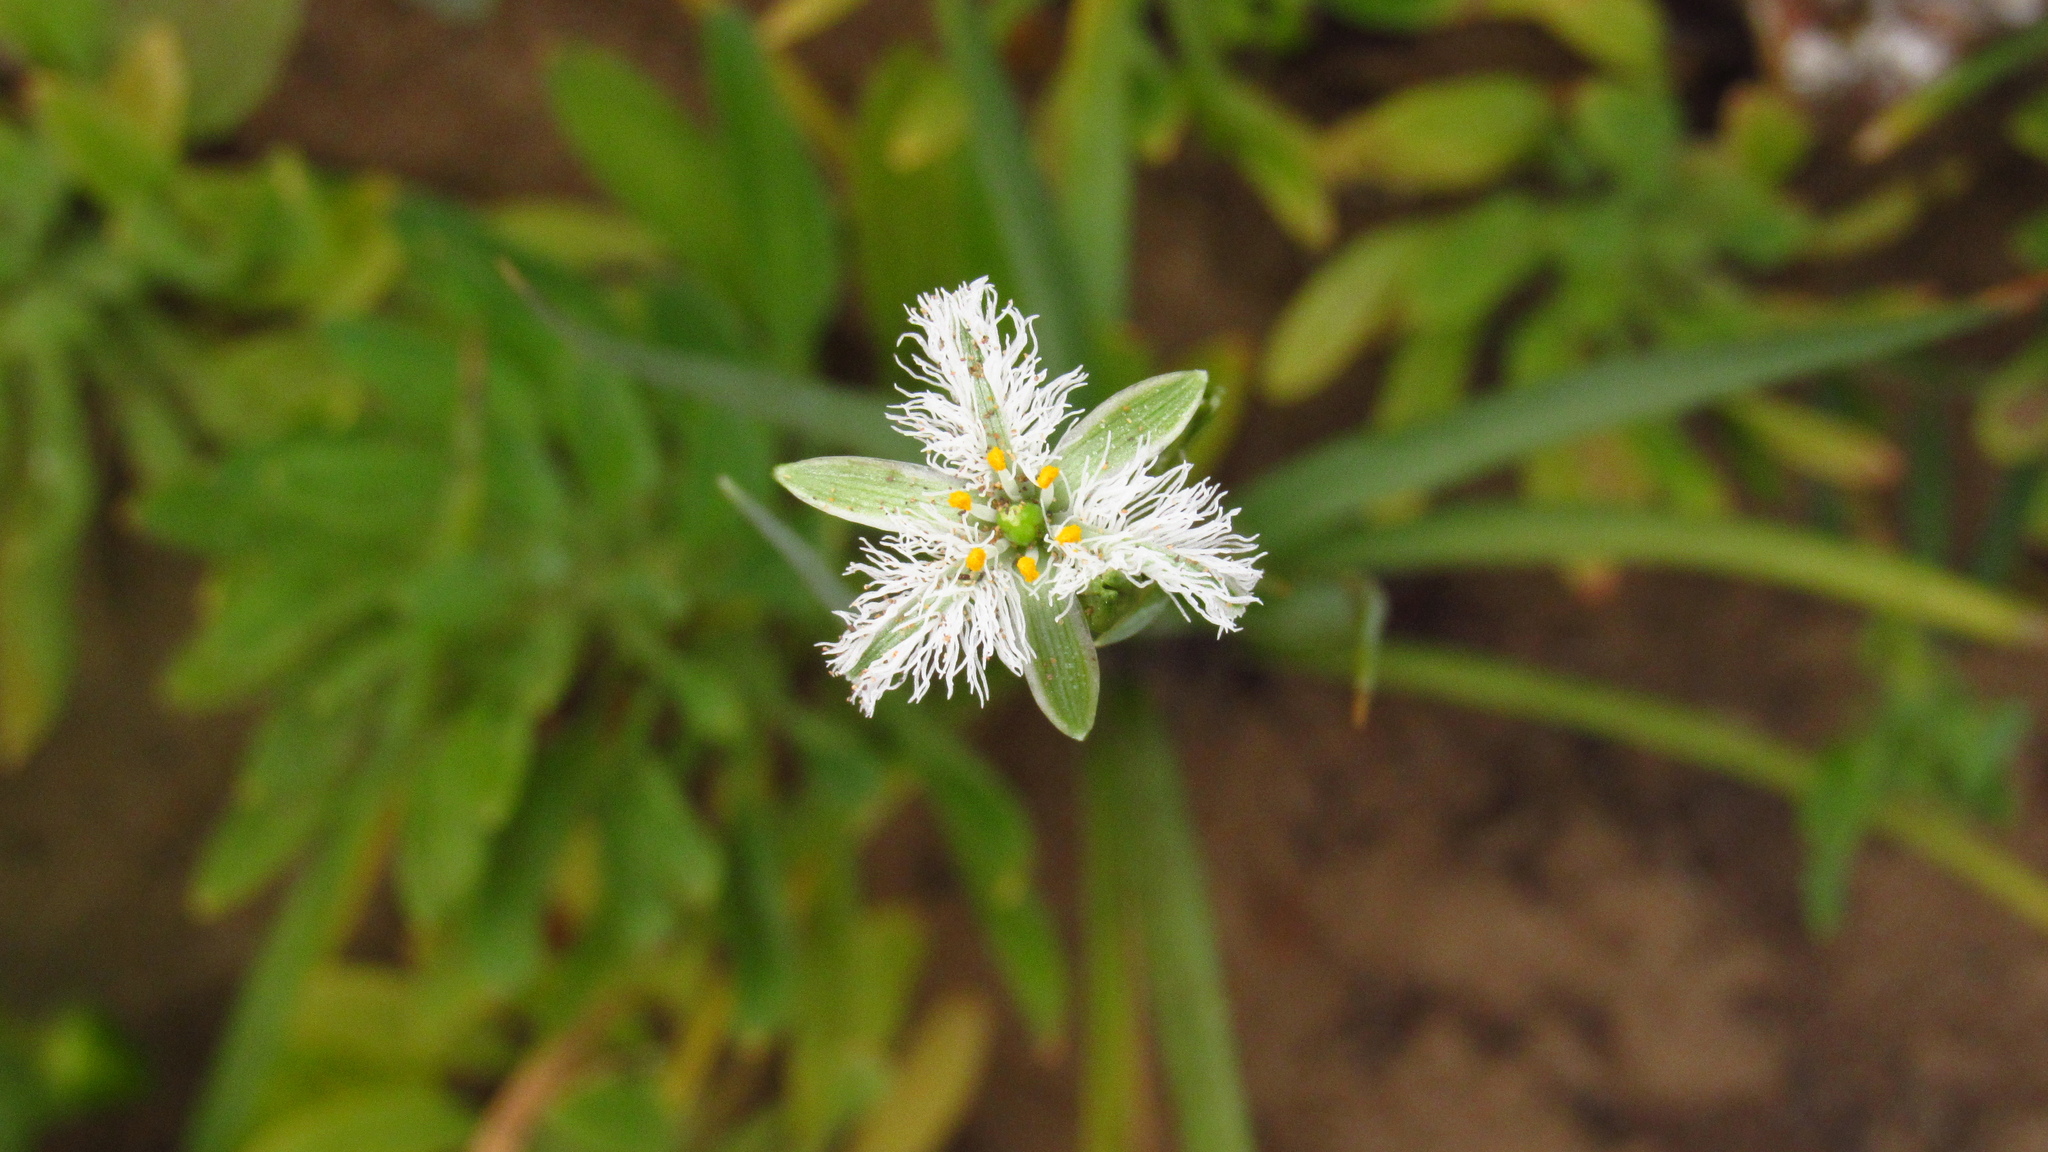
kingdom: Plantae
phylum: Tracheophyta
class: Liliopsida
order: Asparagales
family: Asparagaceae
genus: Trichopetalum
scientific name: Trichopetalum plumosum
